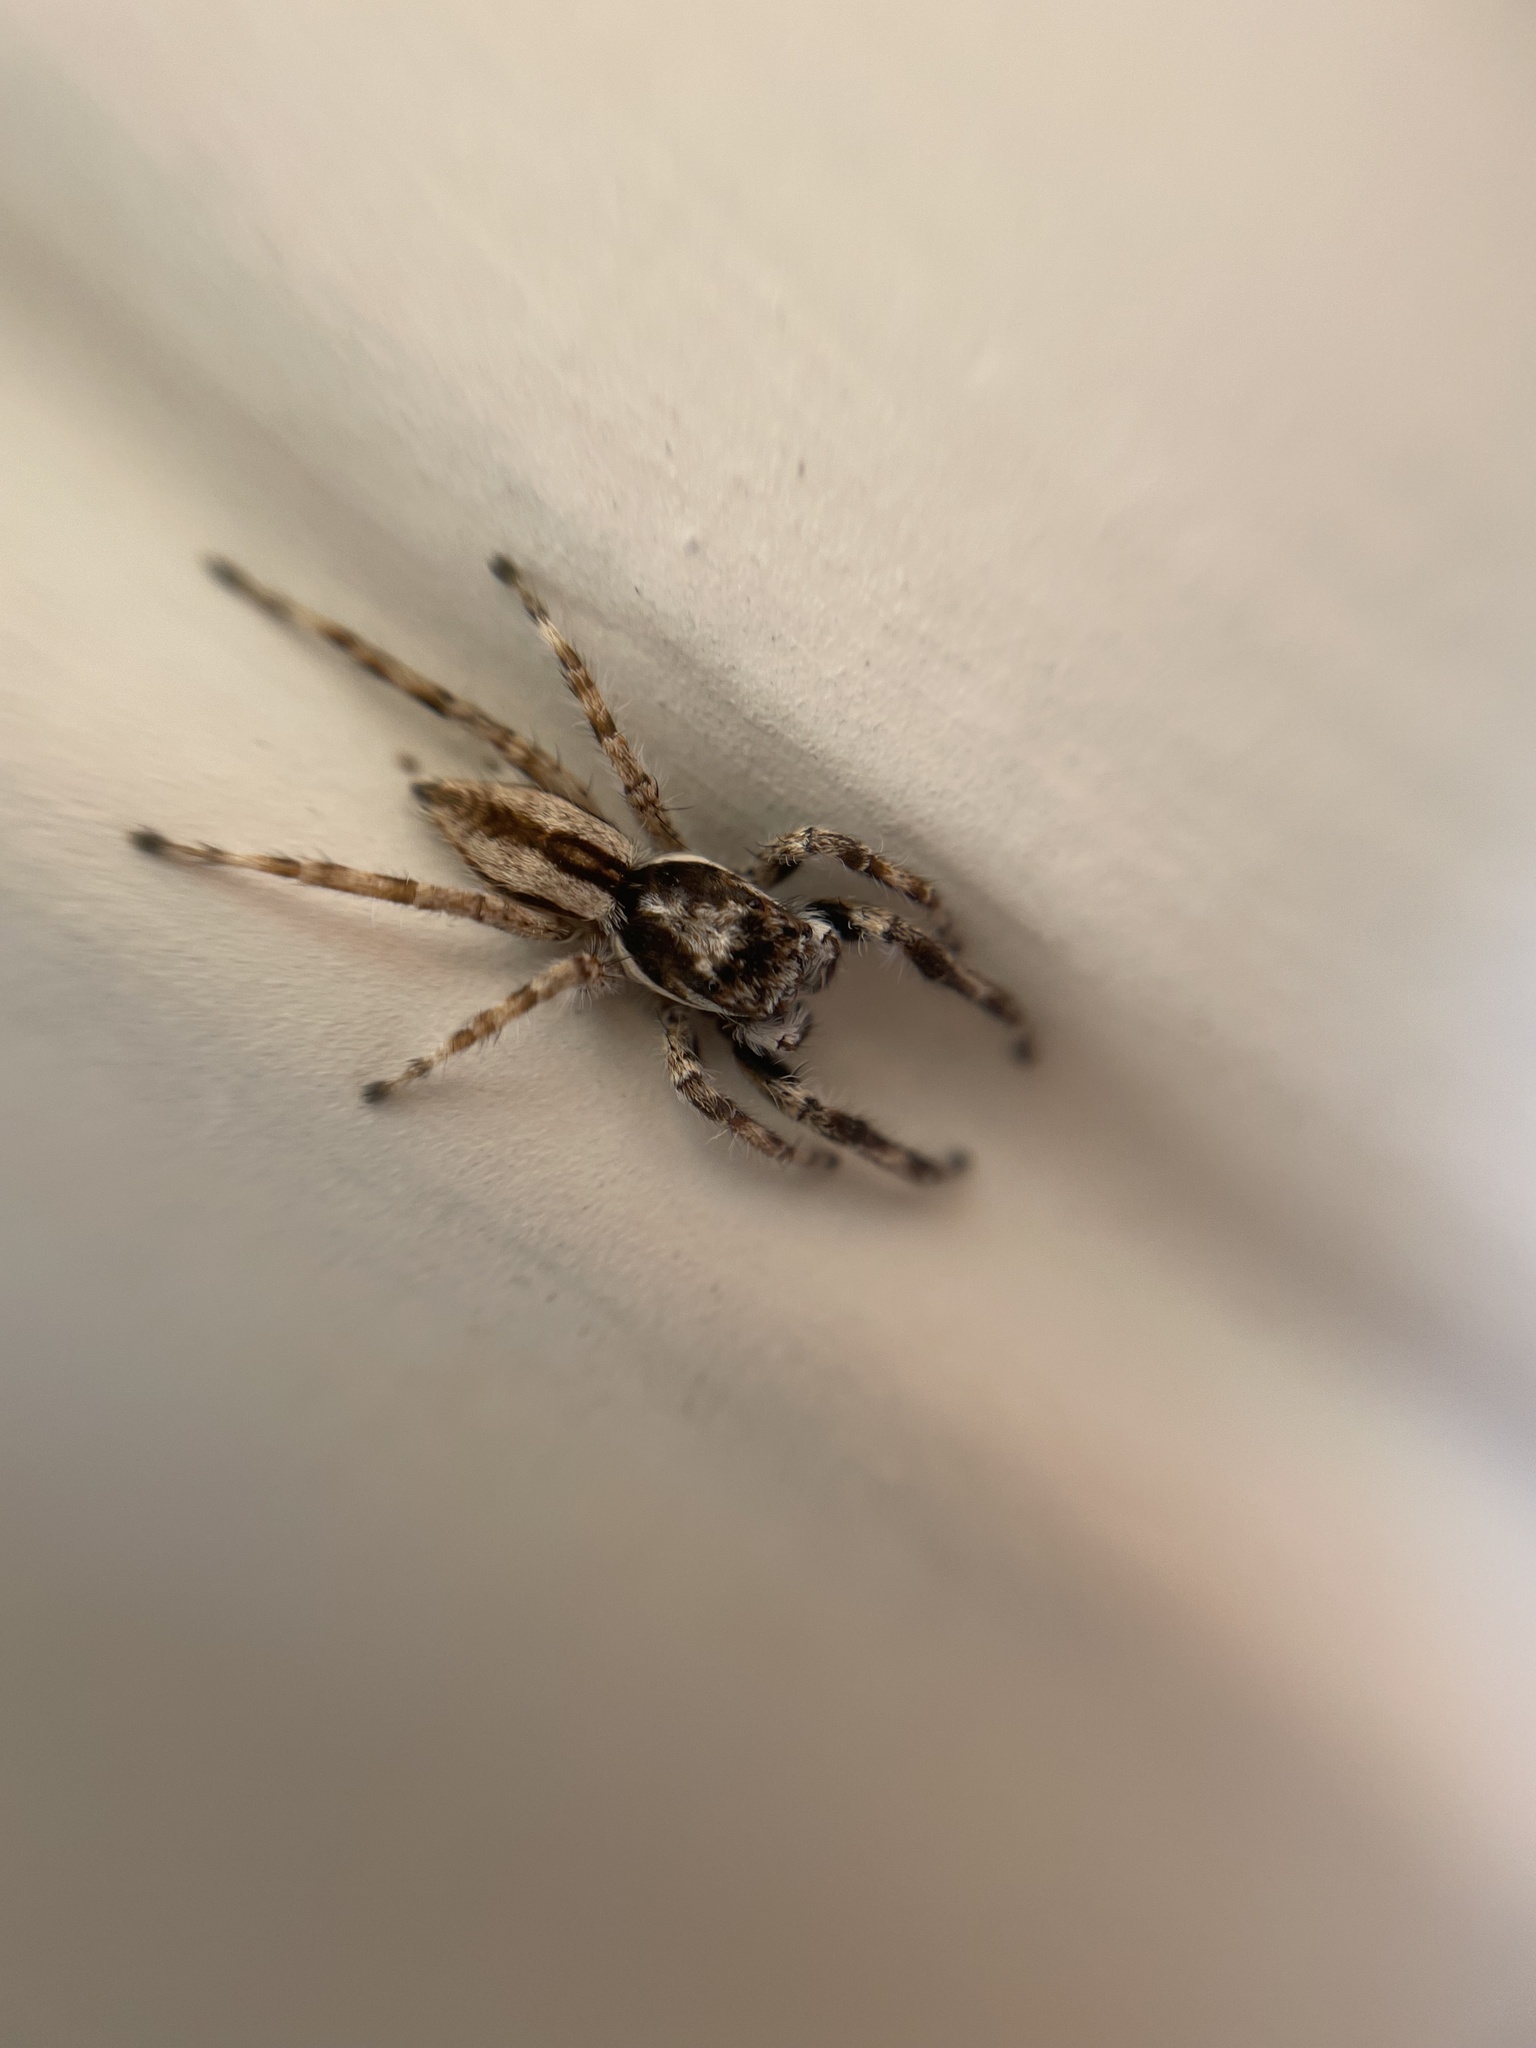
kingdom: Animalia
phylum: Arthropoda
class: Arachnida
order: Araneae
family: Salticidae
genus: Menemerus
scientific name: Menemerus bivittatus
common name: Gray wall jumper
